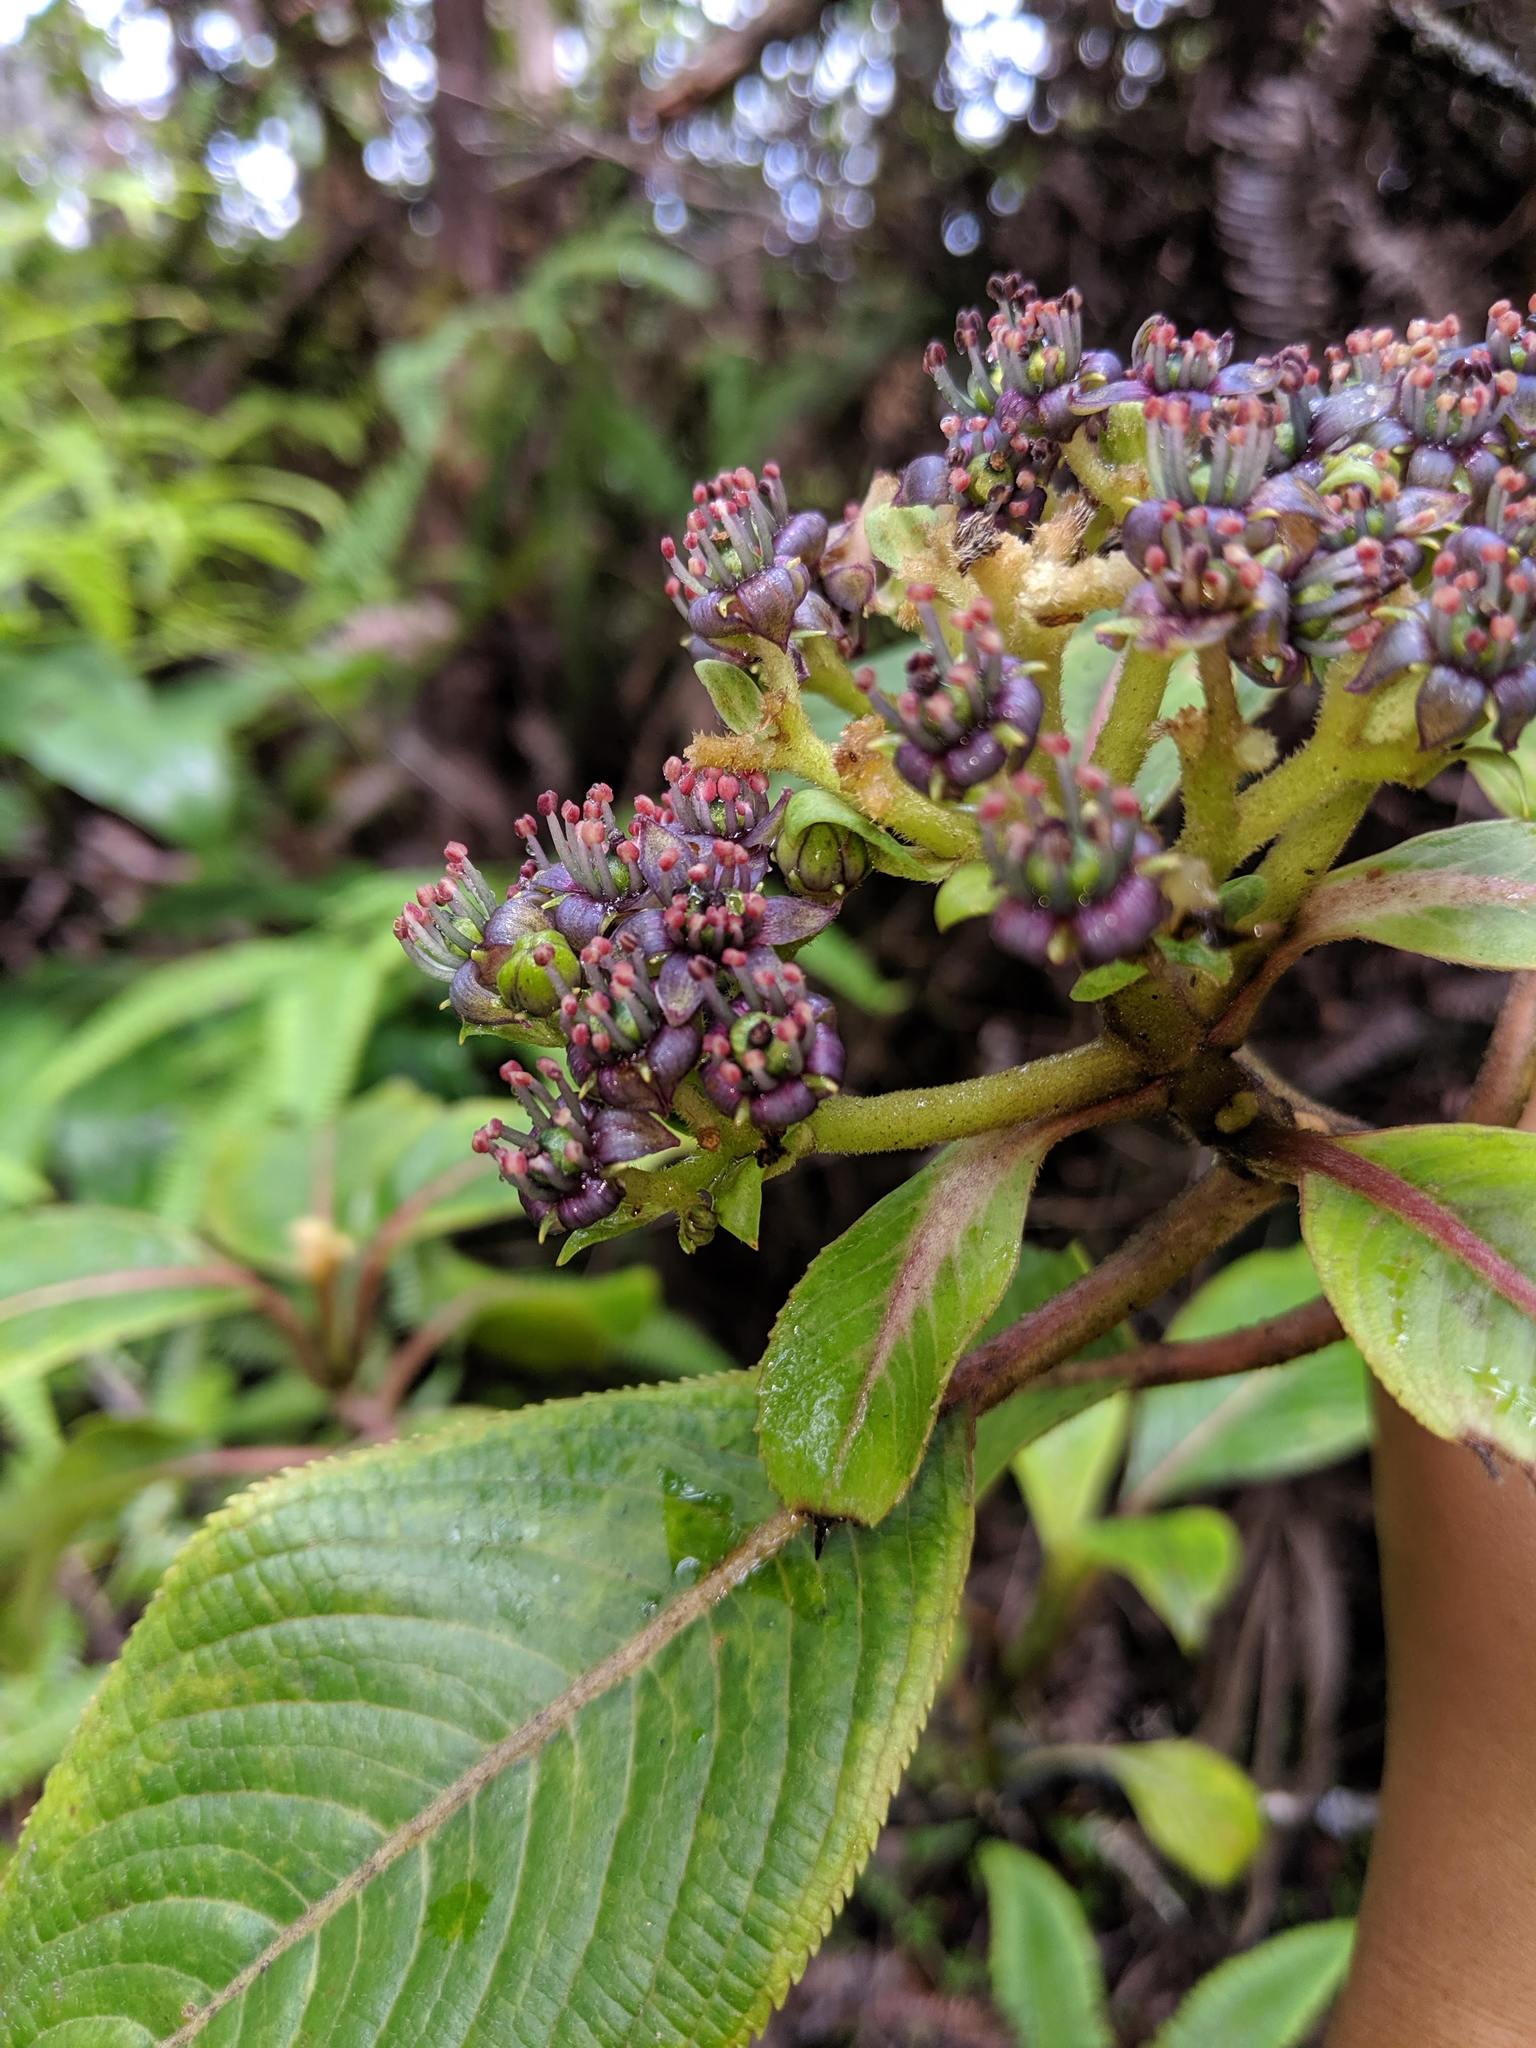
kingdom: Plantae
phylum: Tracheophyta
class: Magnoliopsida
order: Cornales
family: Hydrangeaceae
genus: Hydrangea
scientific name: Hydrangea arguta
